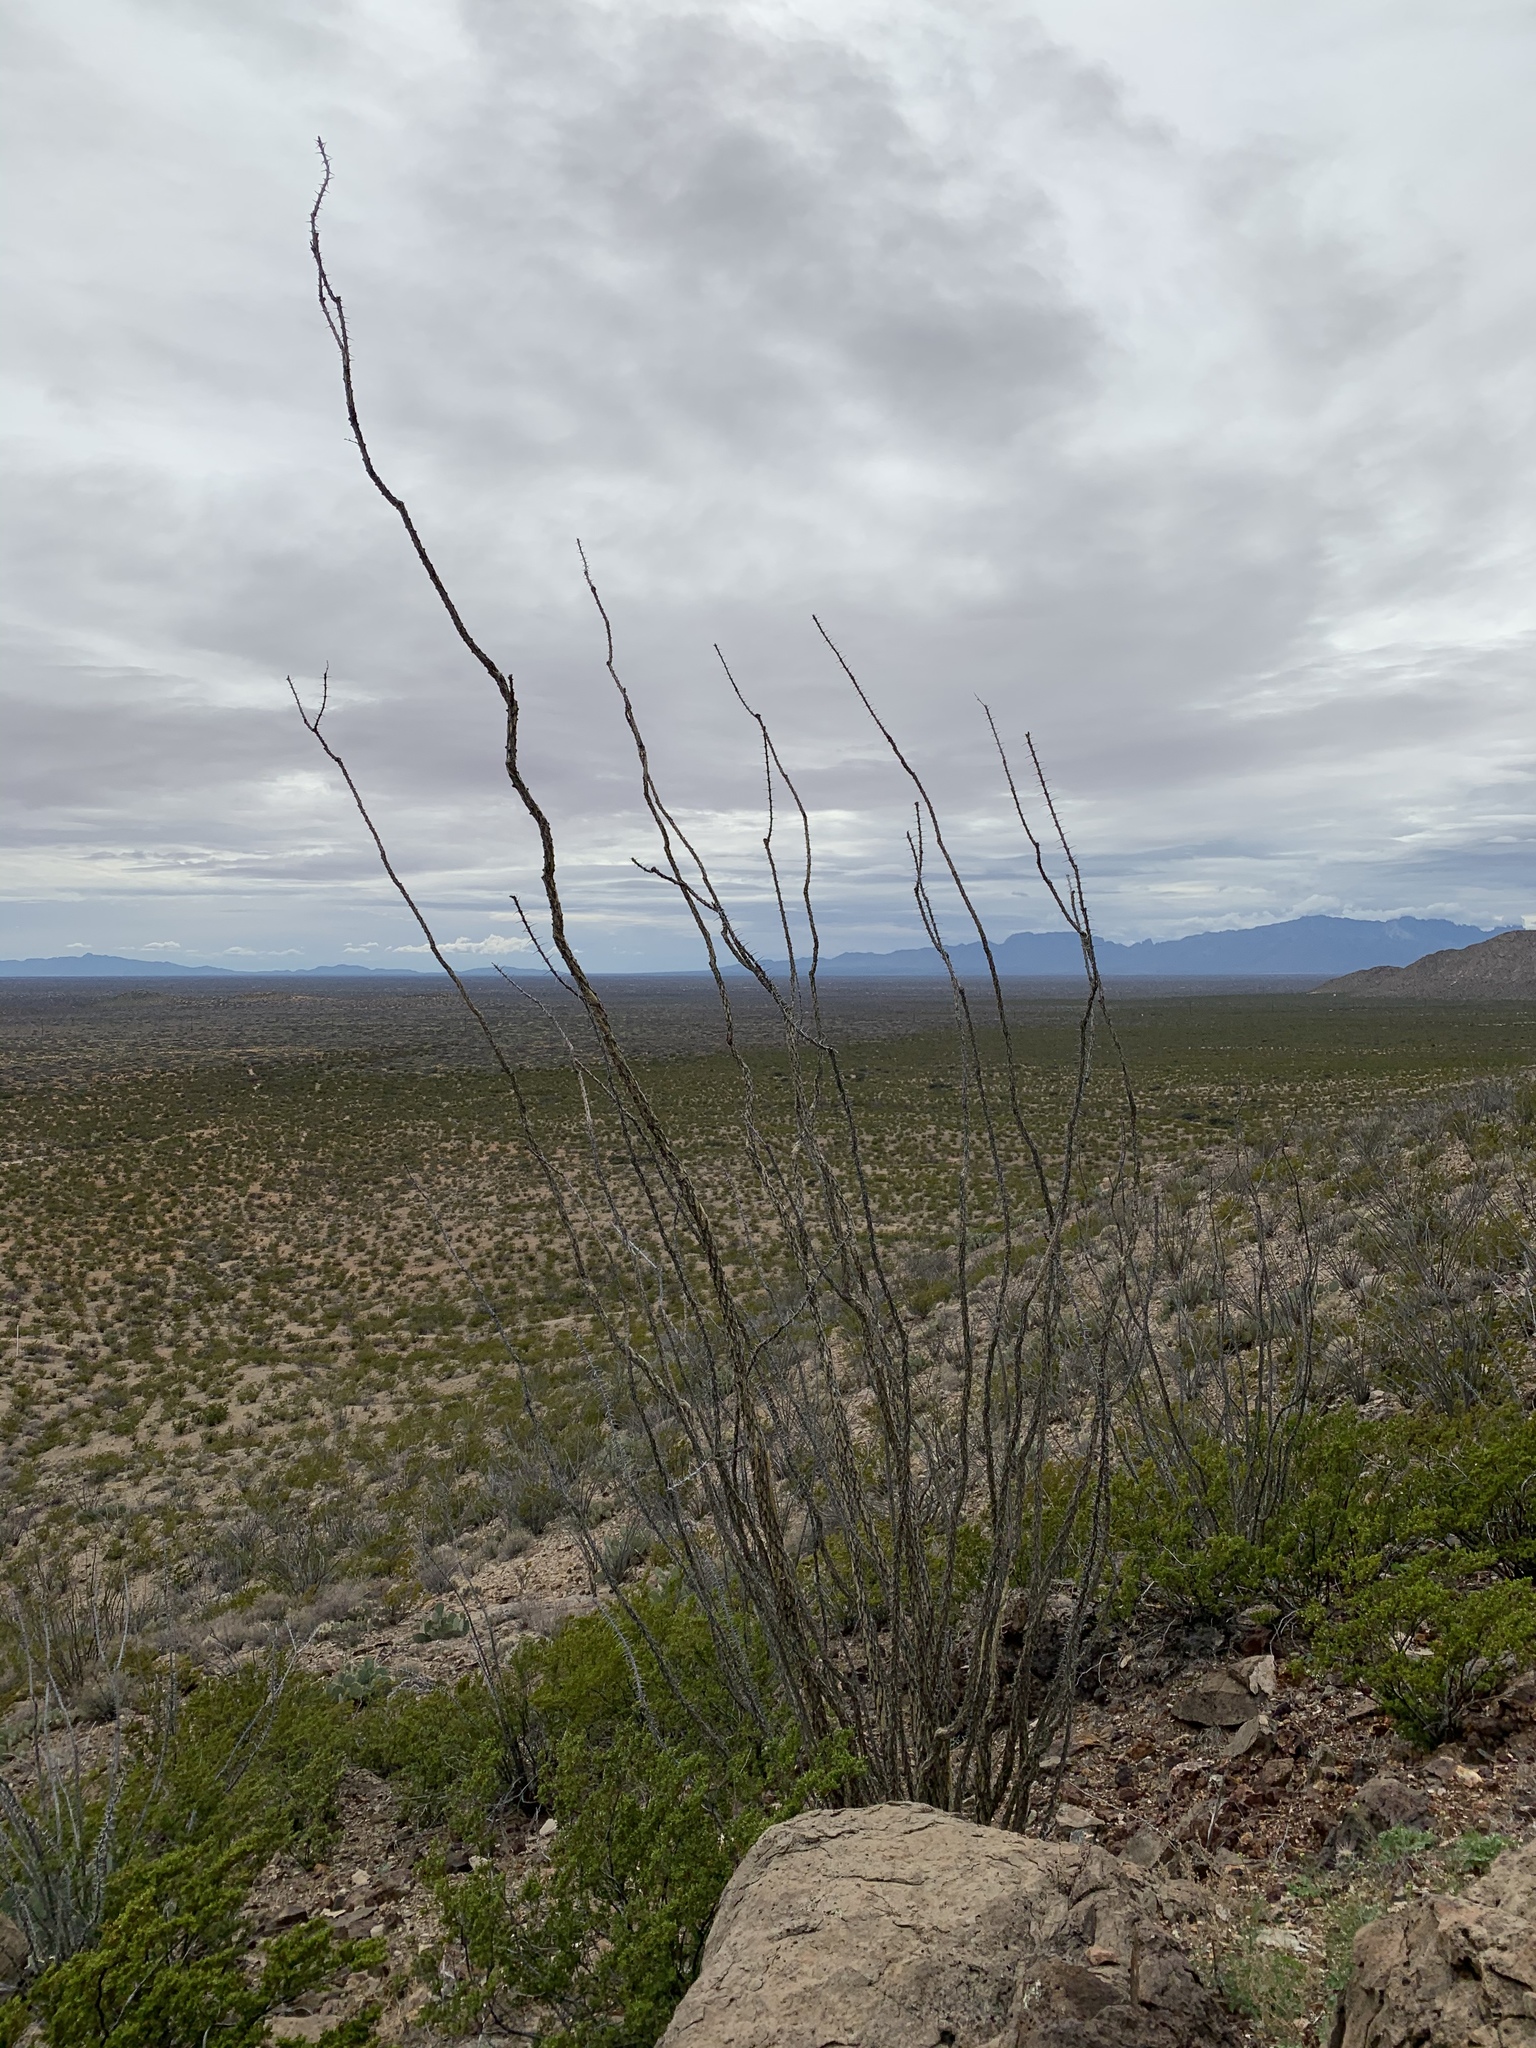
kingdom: Plantae
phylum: Tracheophyta
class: Magnoliopsida
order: Ericales
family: Fouquieriaceae
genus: Fouquieria
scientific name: Fouquieria splendens
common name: Vine-cactus
